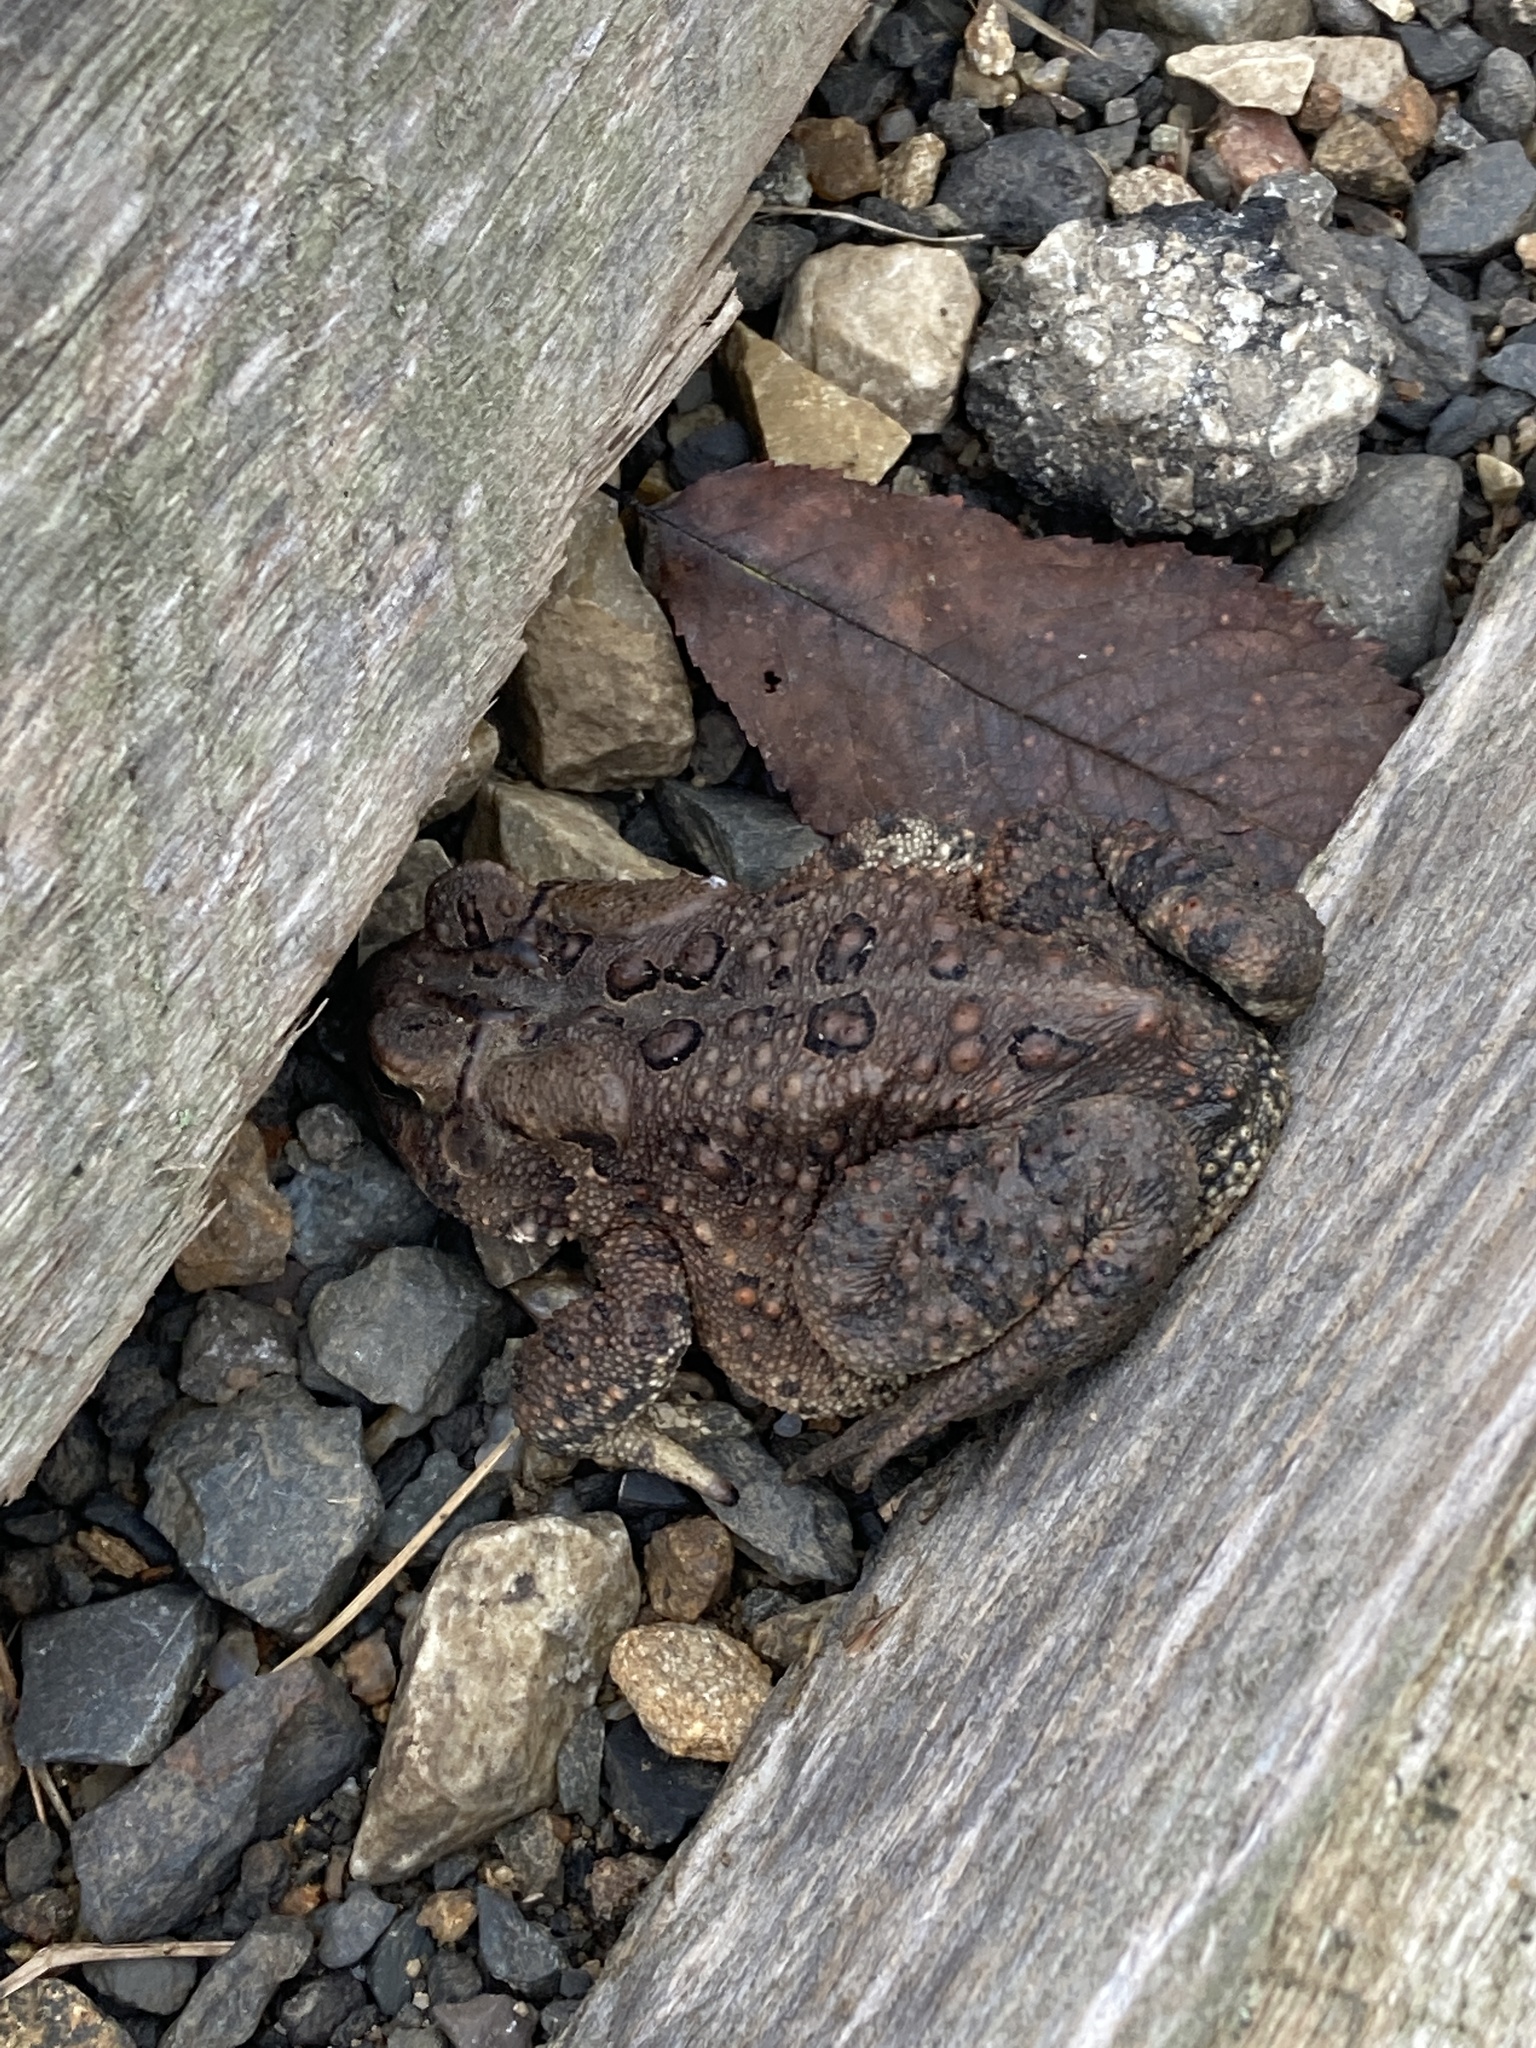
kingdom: Animalia
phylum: Chordata
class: Amphibia
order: Anura
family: Bufonidae
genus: Anaxyrus
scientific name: Anaxyrus americanus
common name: American toad
